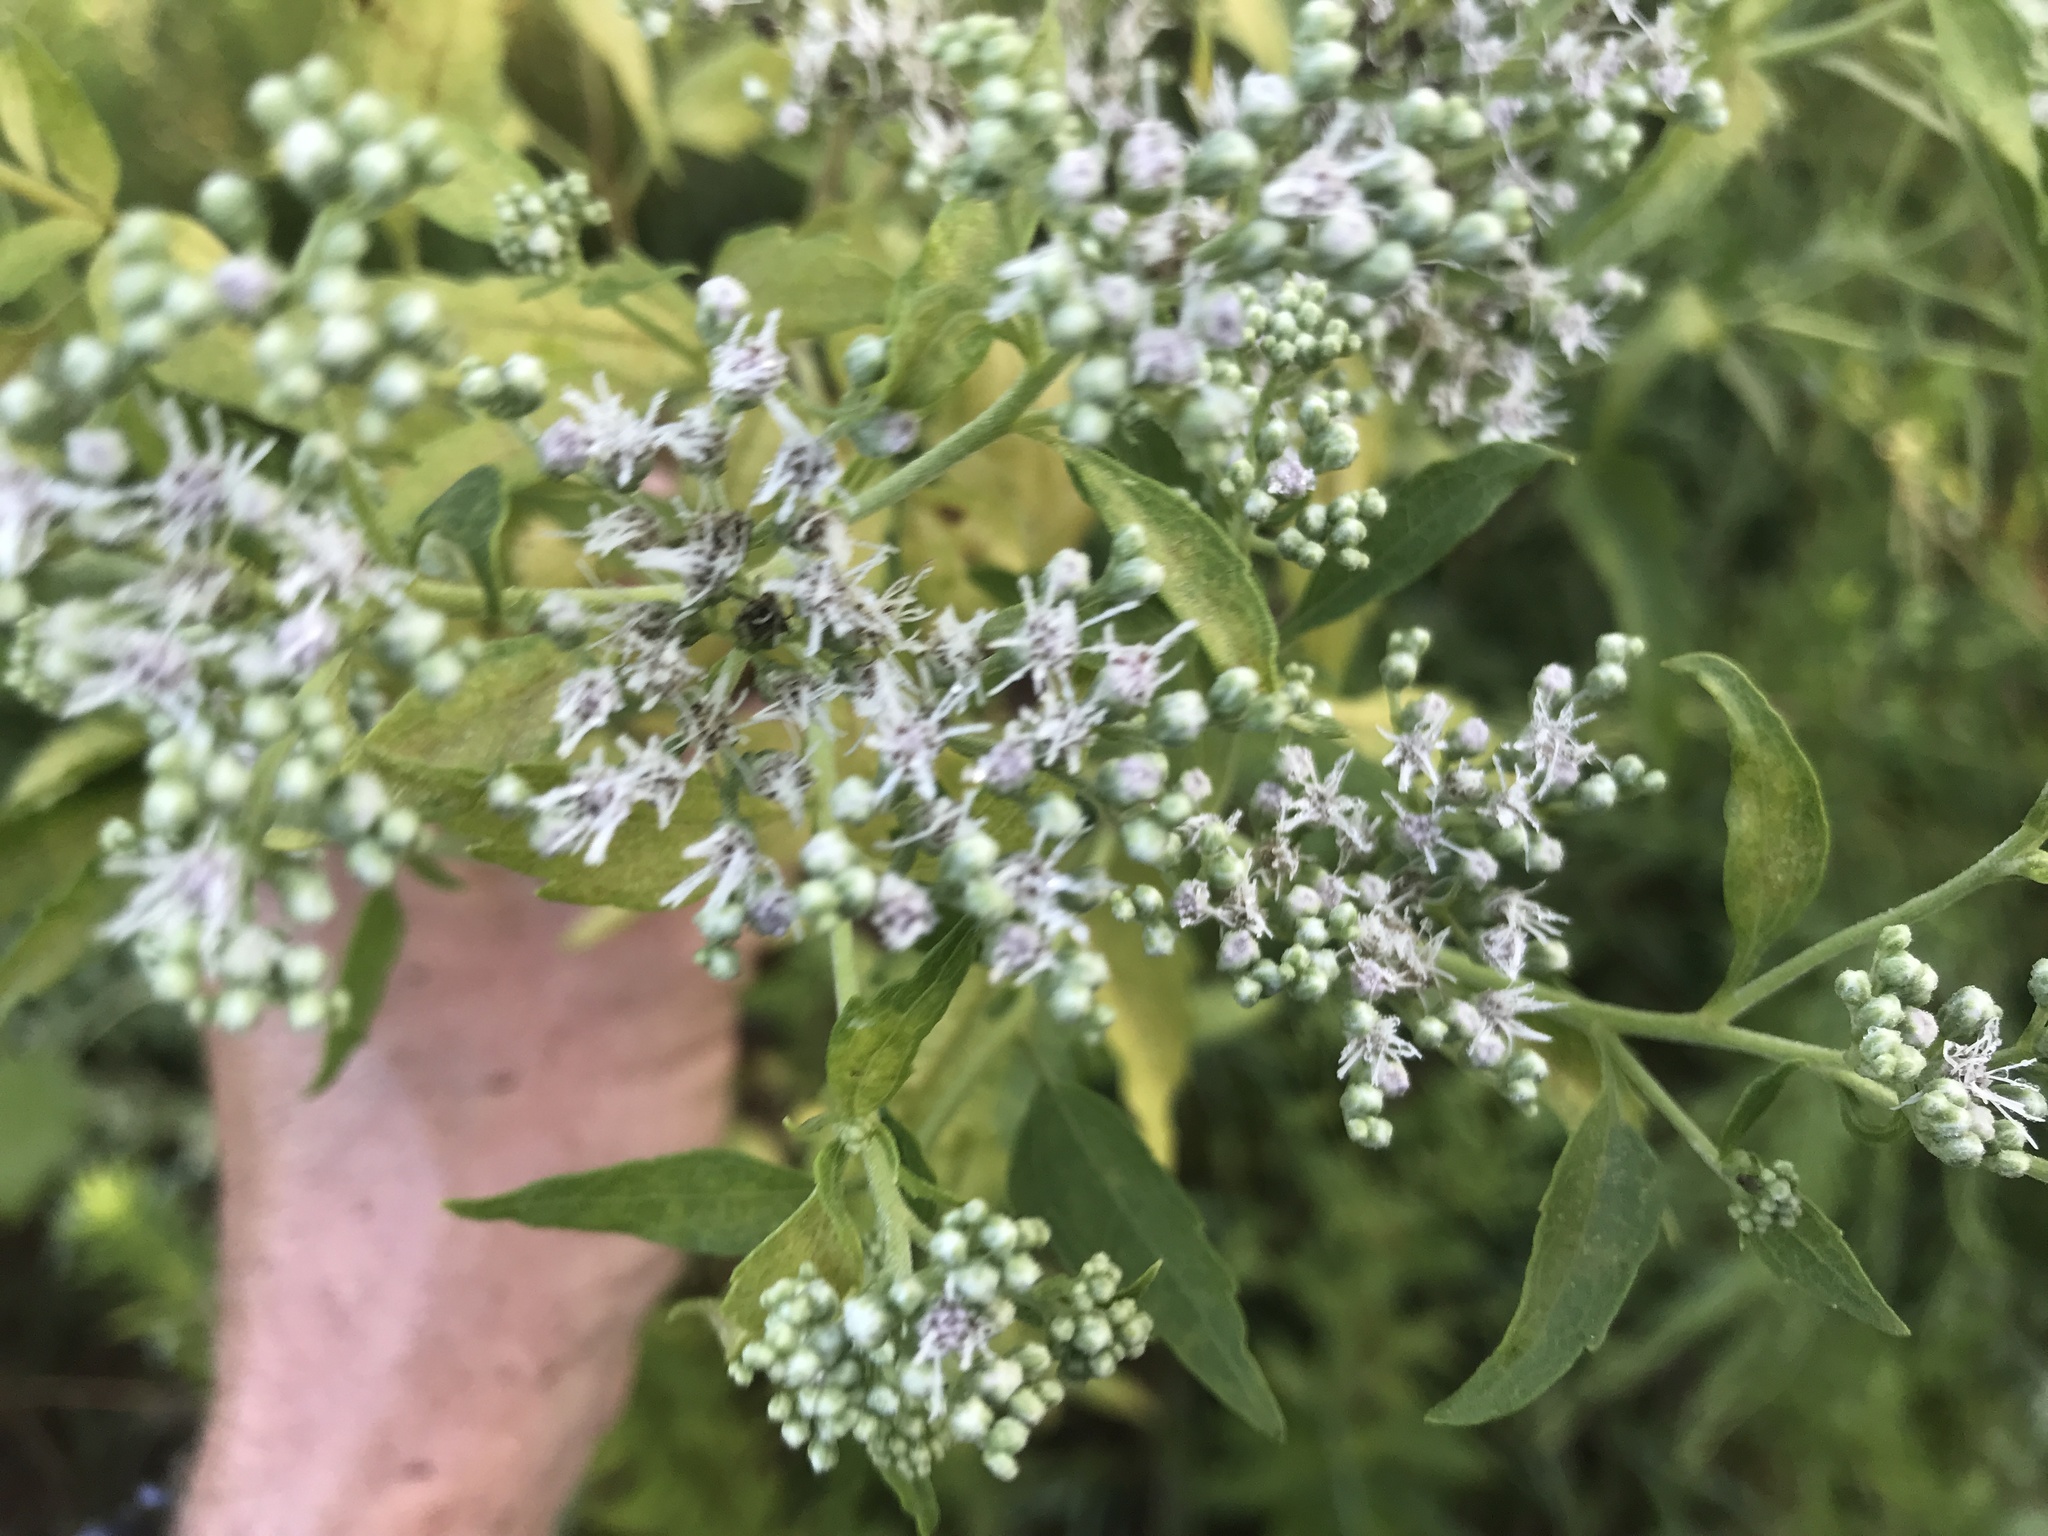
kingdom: Plantae
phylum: Tracheophyta
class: Magnoliopsida
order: Asterales
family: Asteraceae
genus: Eupatorium
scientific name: Eupatorium serotinum
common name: Late boneset
